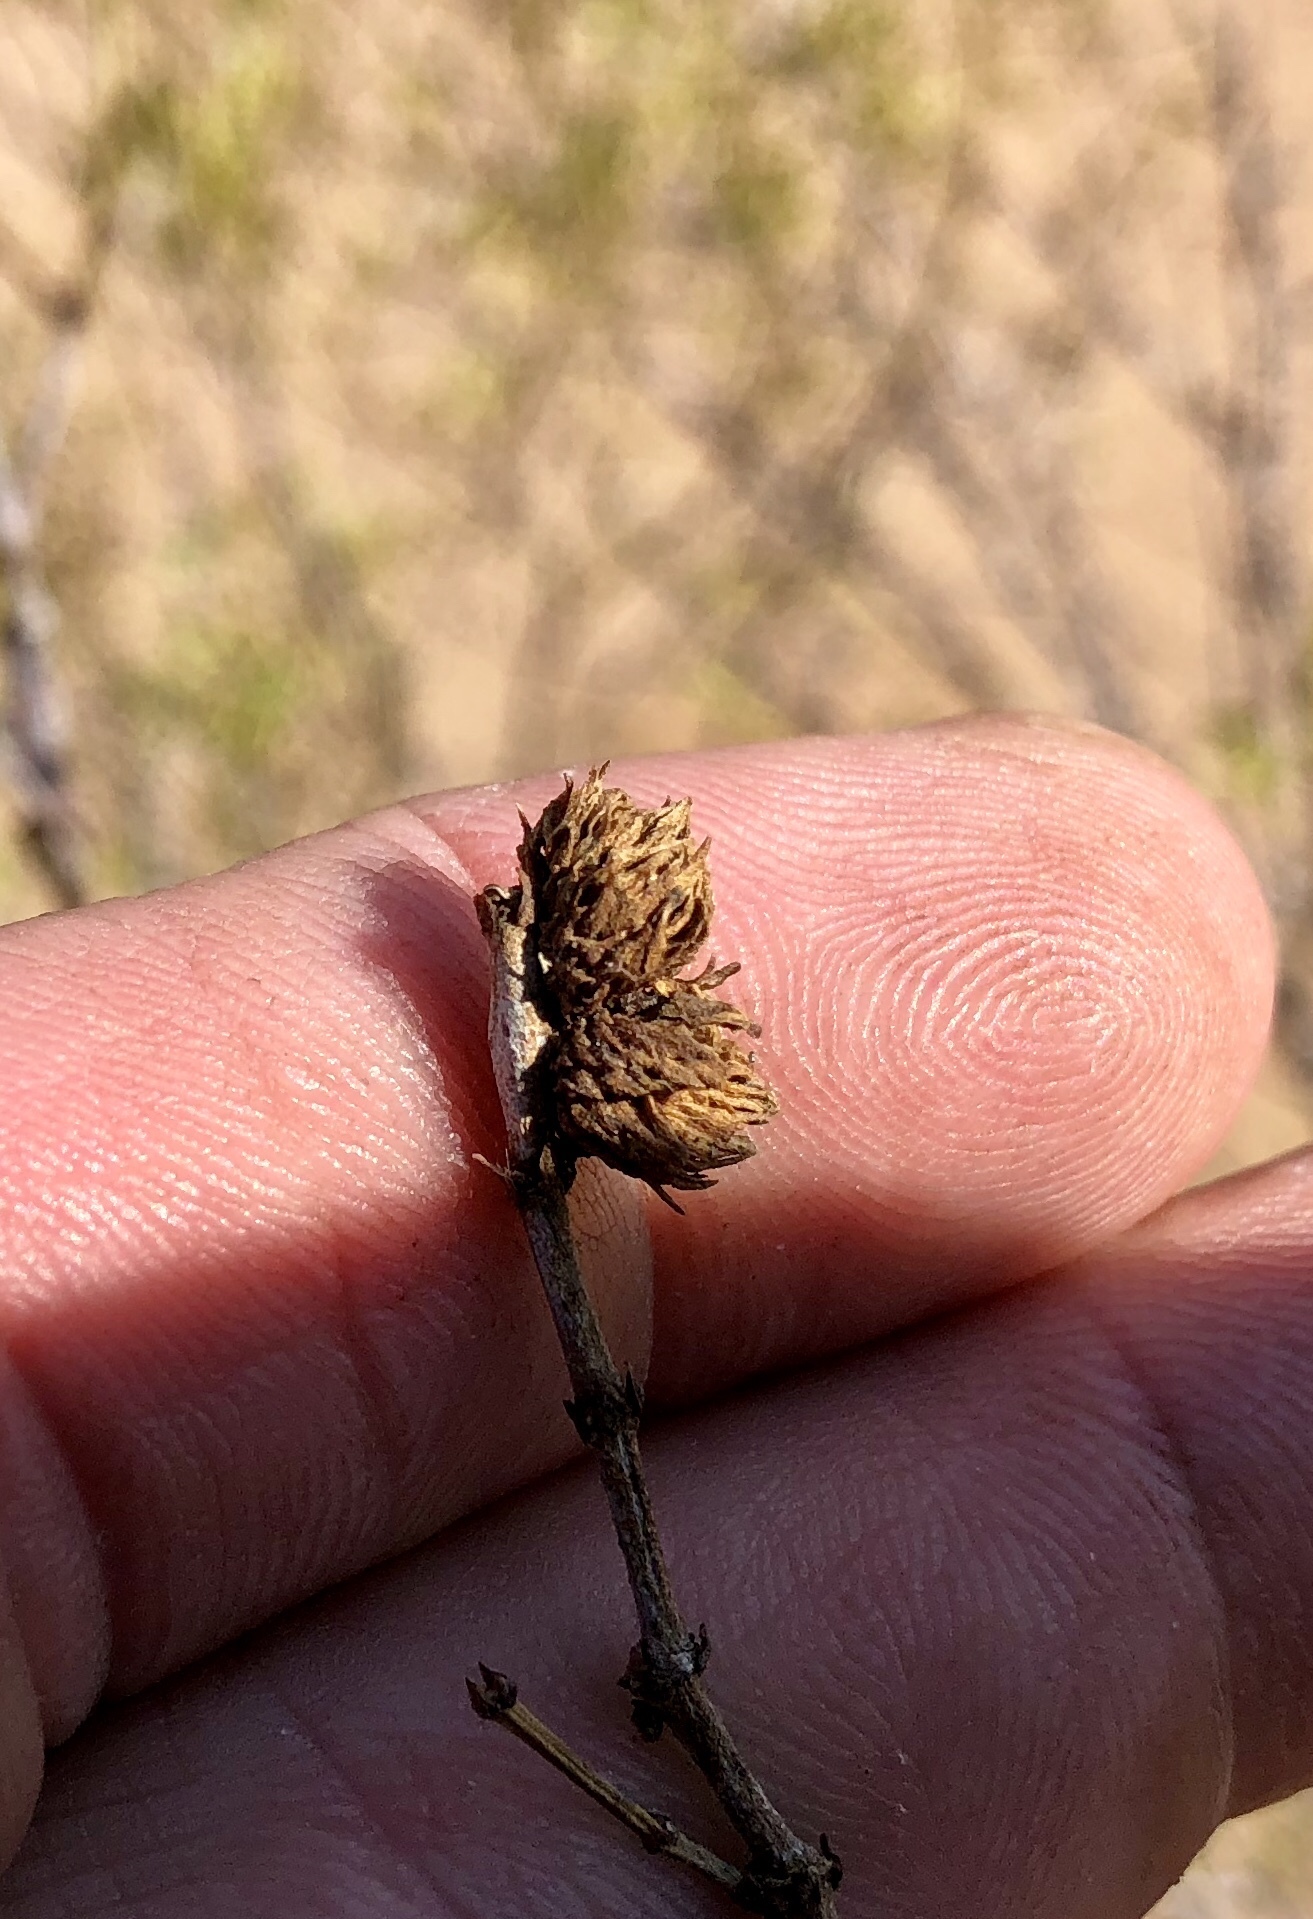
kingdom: Animalia
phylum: Arthropoda
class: Insecta
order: Diptera
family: Cecidomyiidae
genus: Asphondylia
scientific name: Asphondylia foliosa
